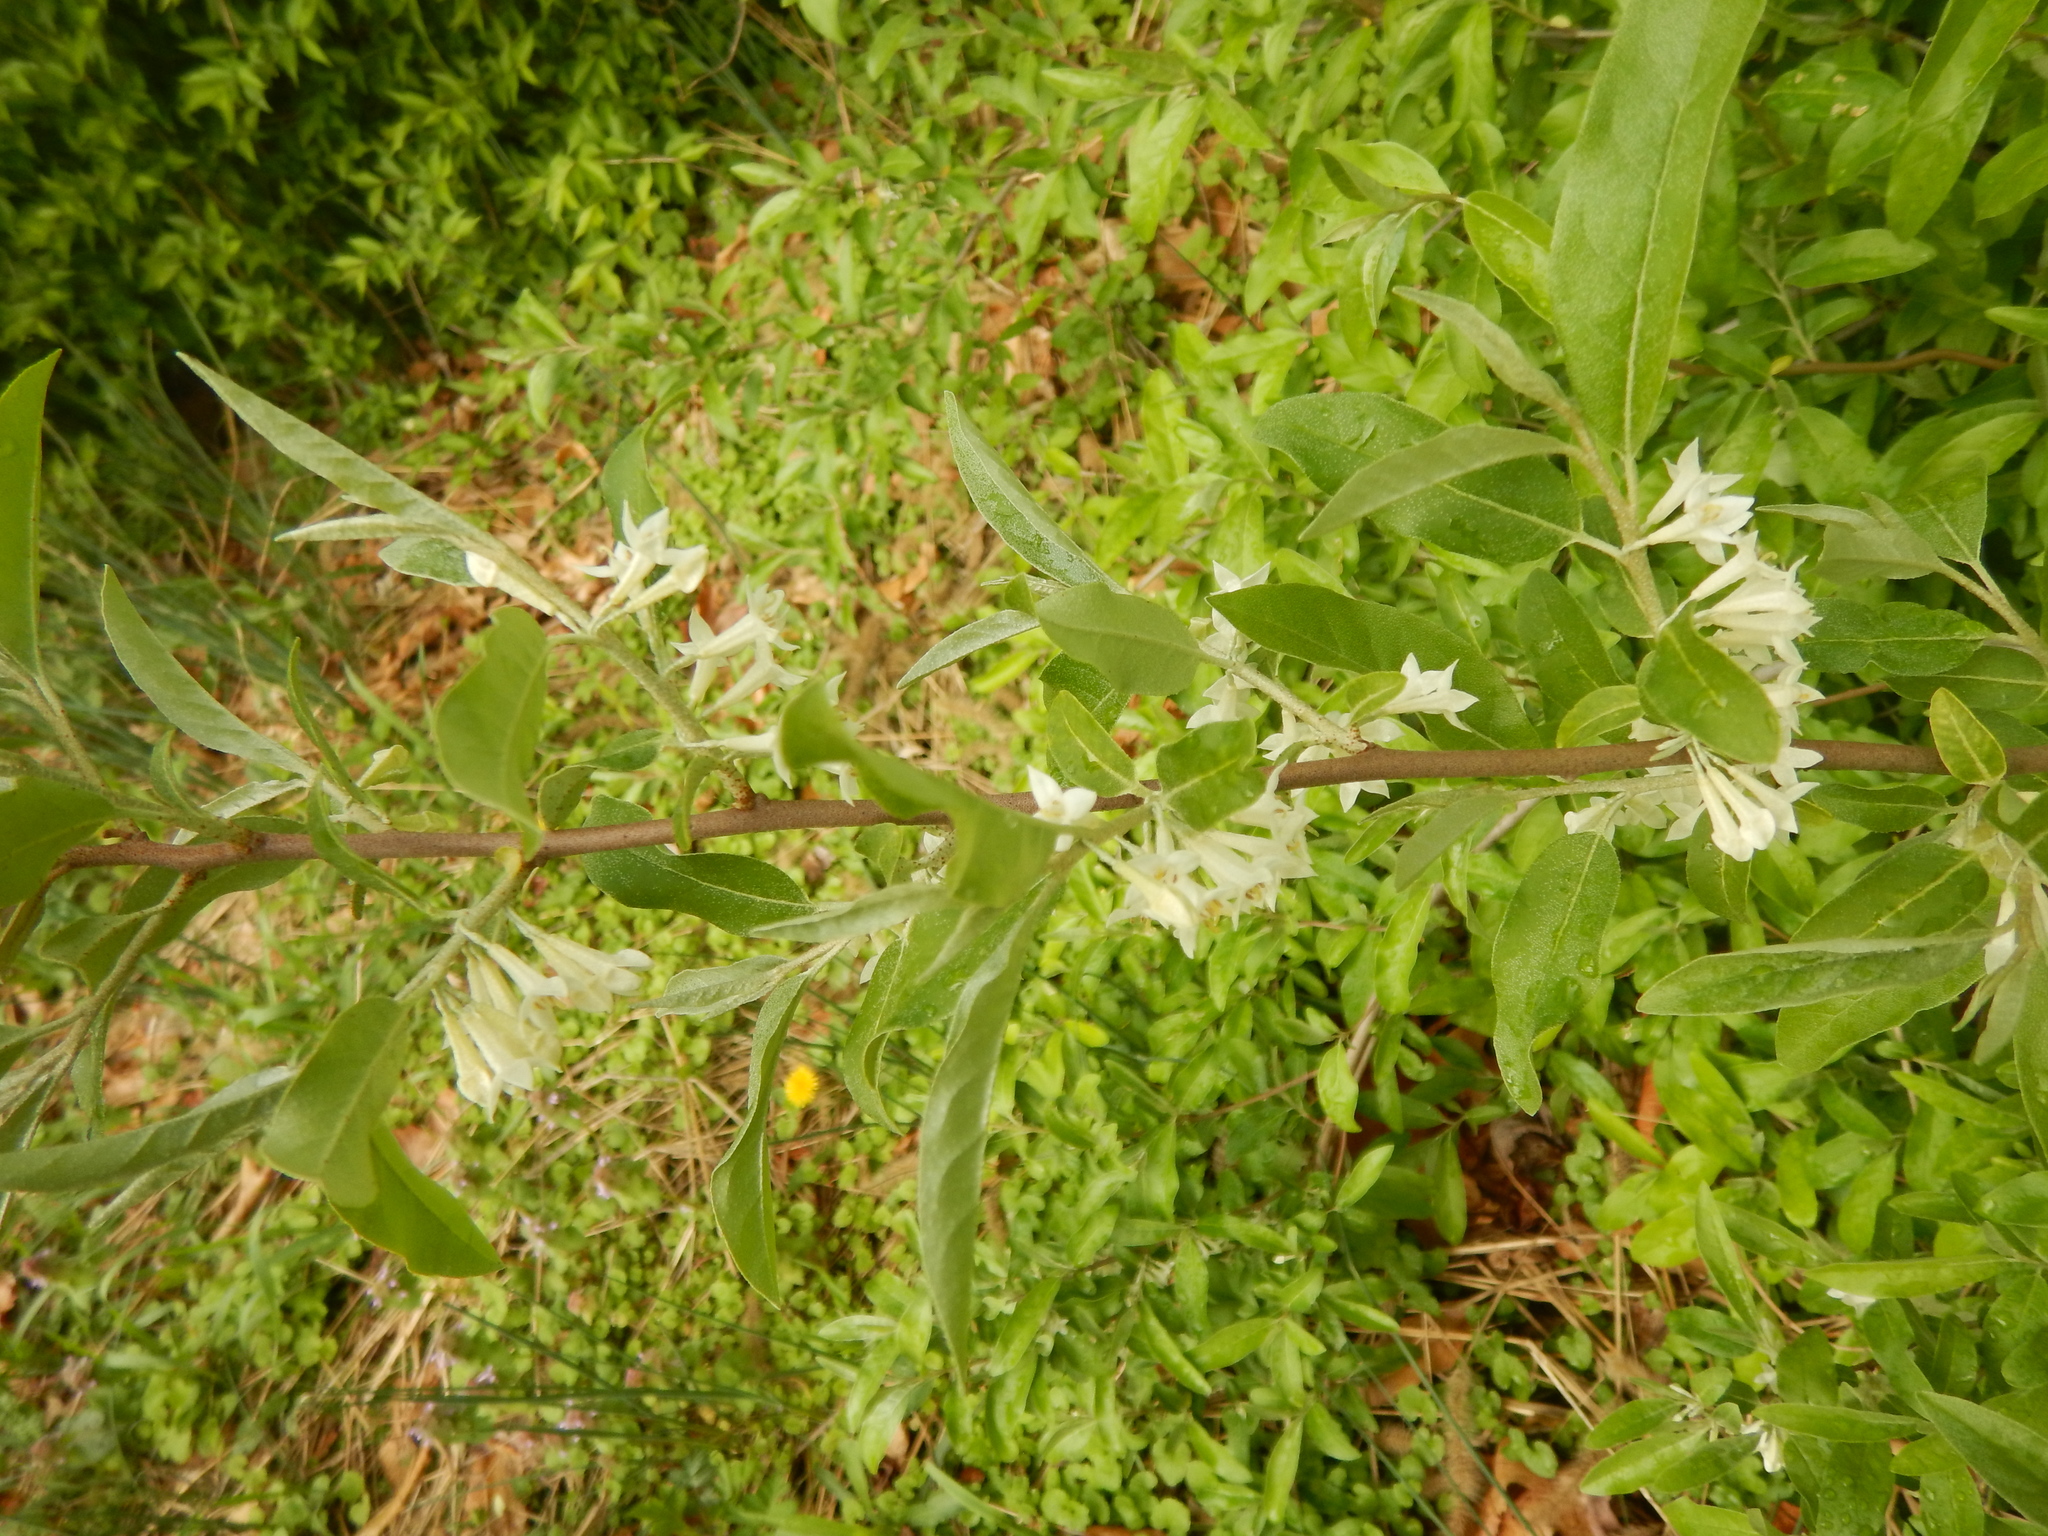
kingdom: Plantae
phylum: Tracheophyta
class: Magnoliopsida
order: Rosales
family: Elaeagnaceae
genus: Elaeagnus
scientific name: Elaeagnus umbellata
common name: Autumn olive
